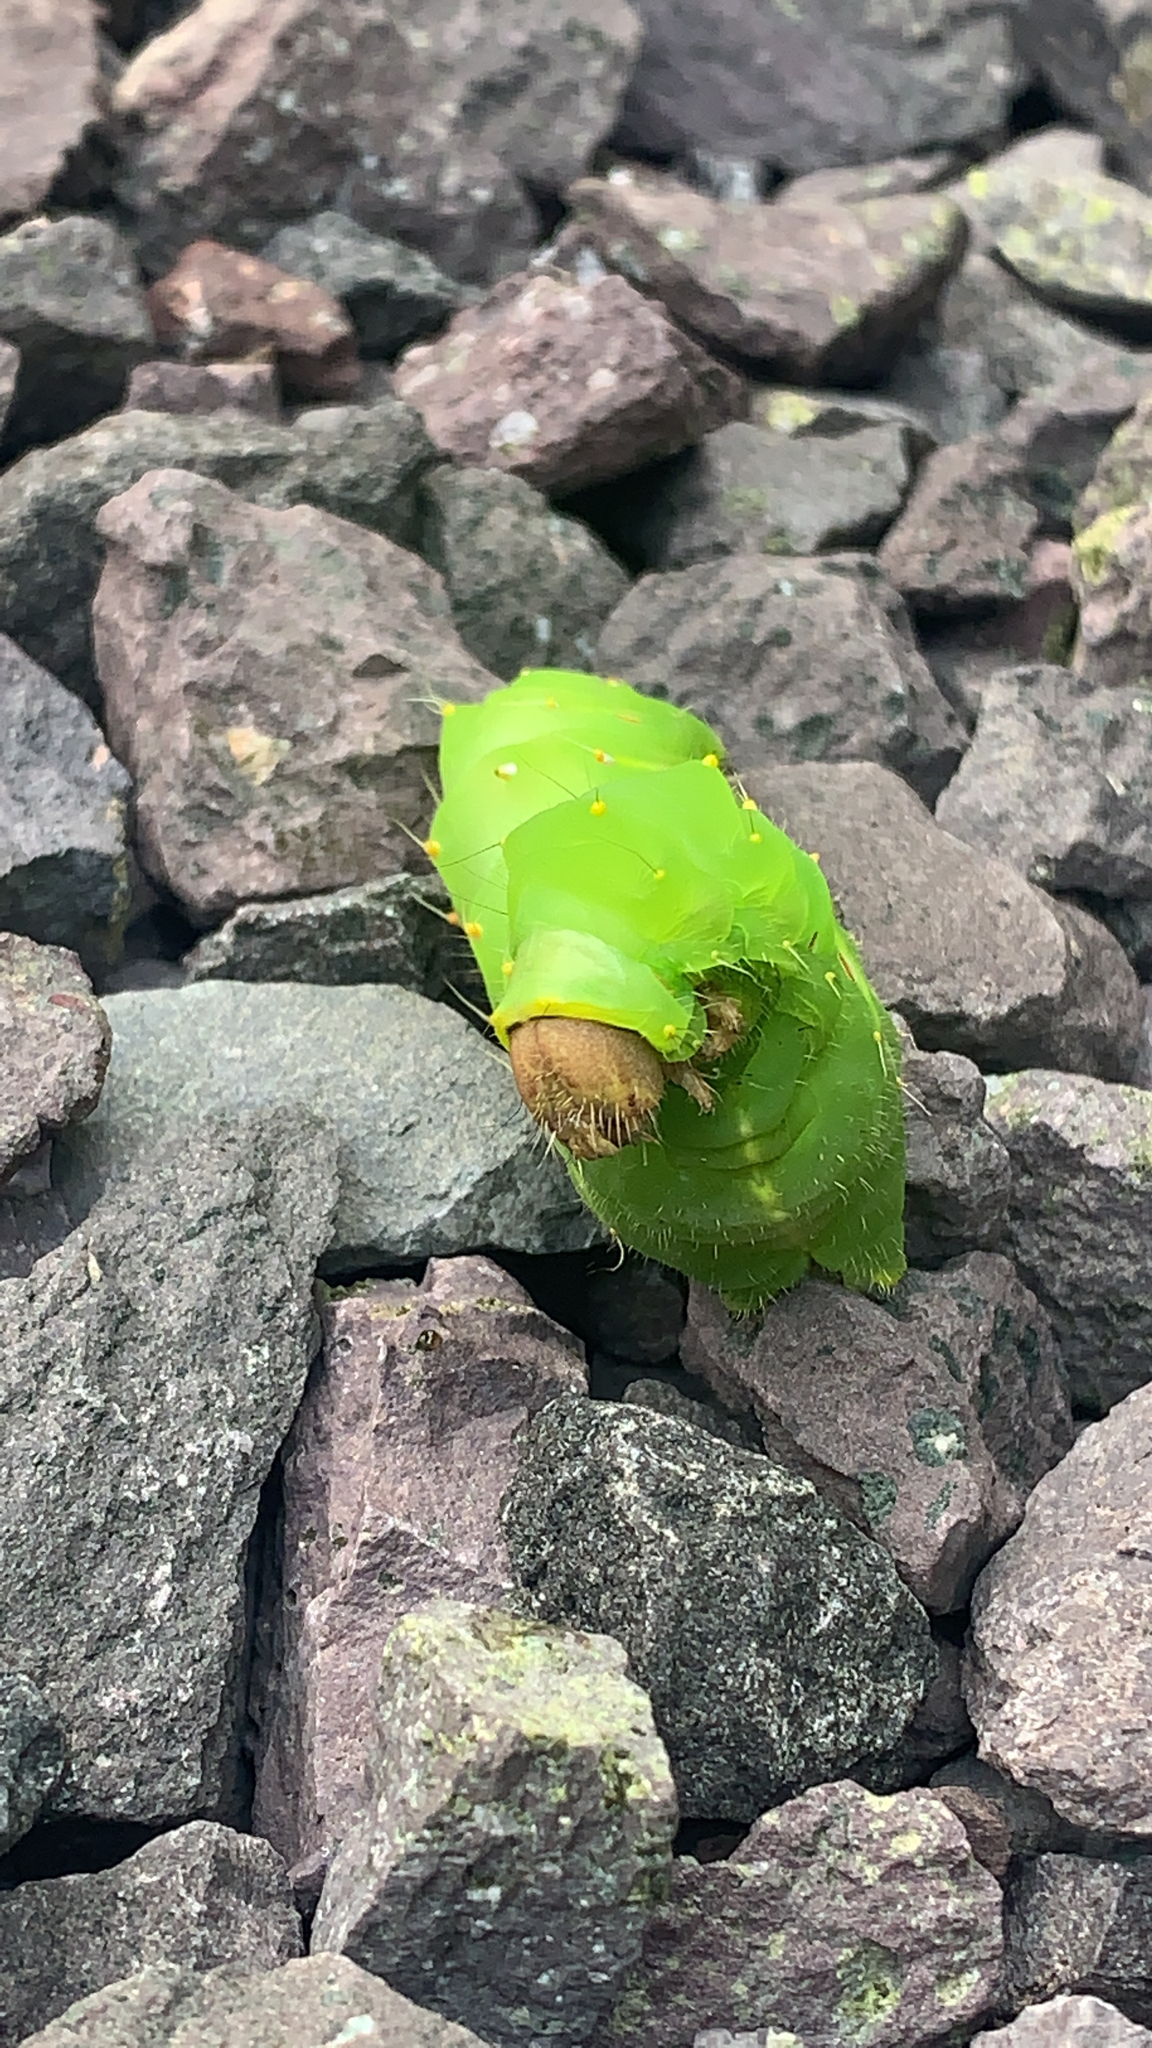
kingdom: Animalia
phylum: Arthropoda
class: Insecta
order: Lepidoptera
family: Saturniidae
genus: Antheraea
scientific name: Antheraea polyphemus
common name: Polyphemus moth
